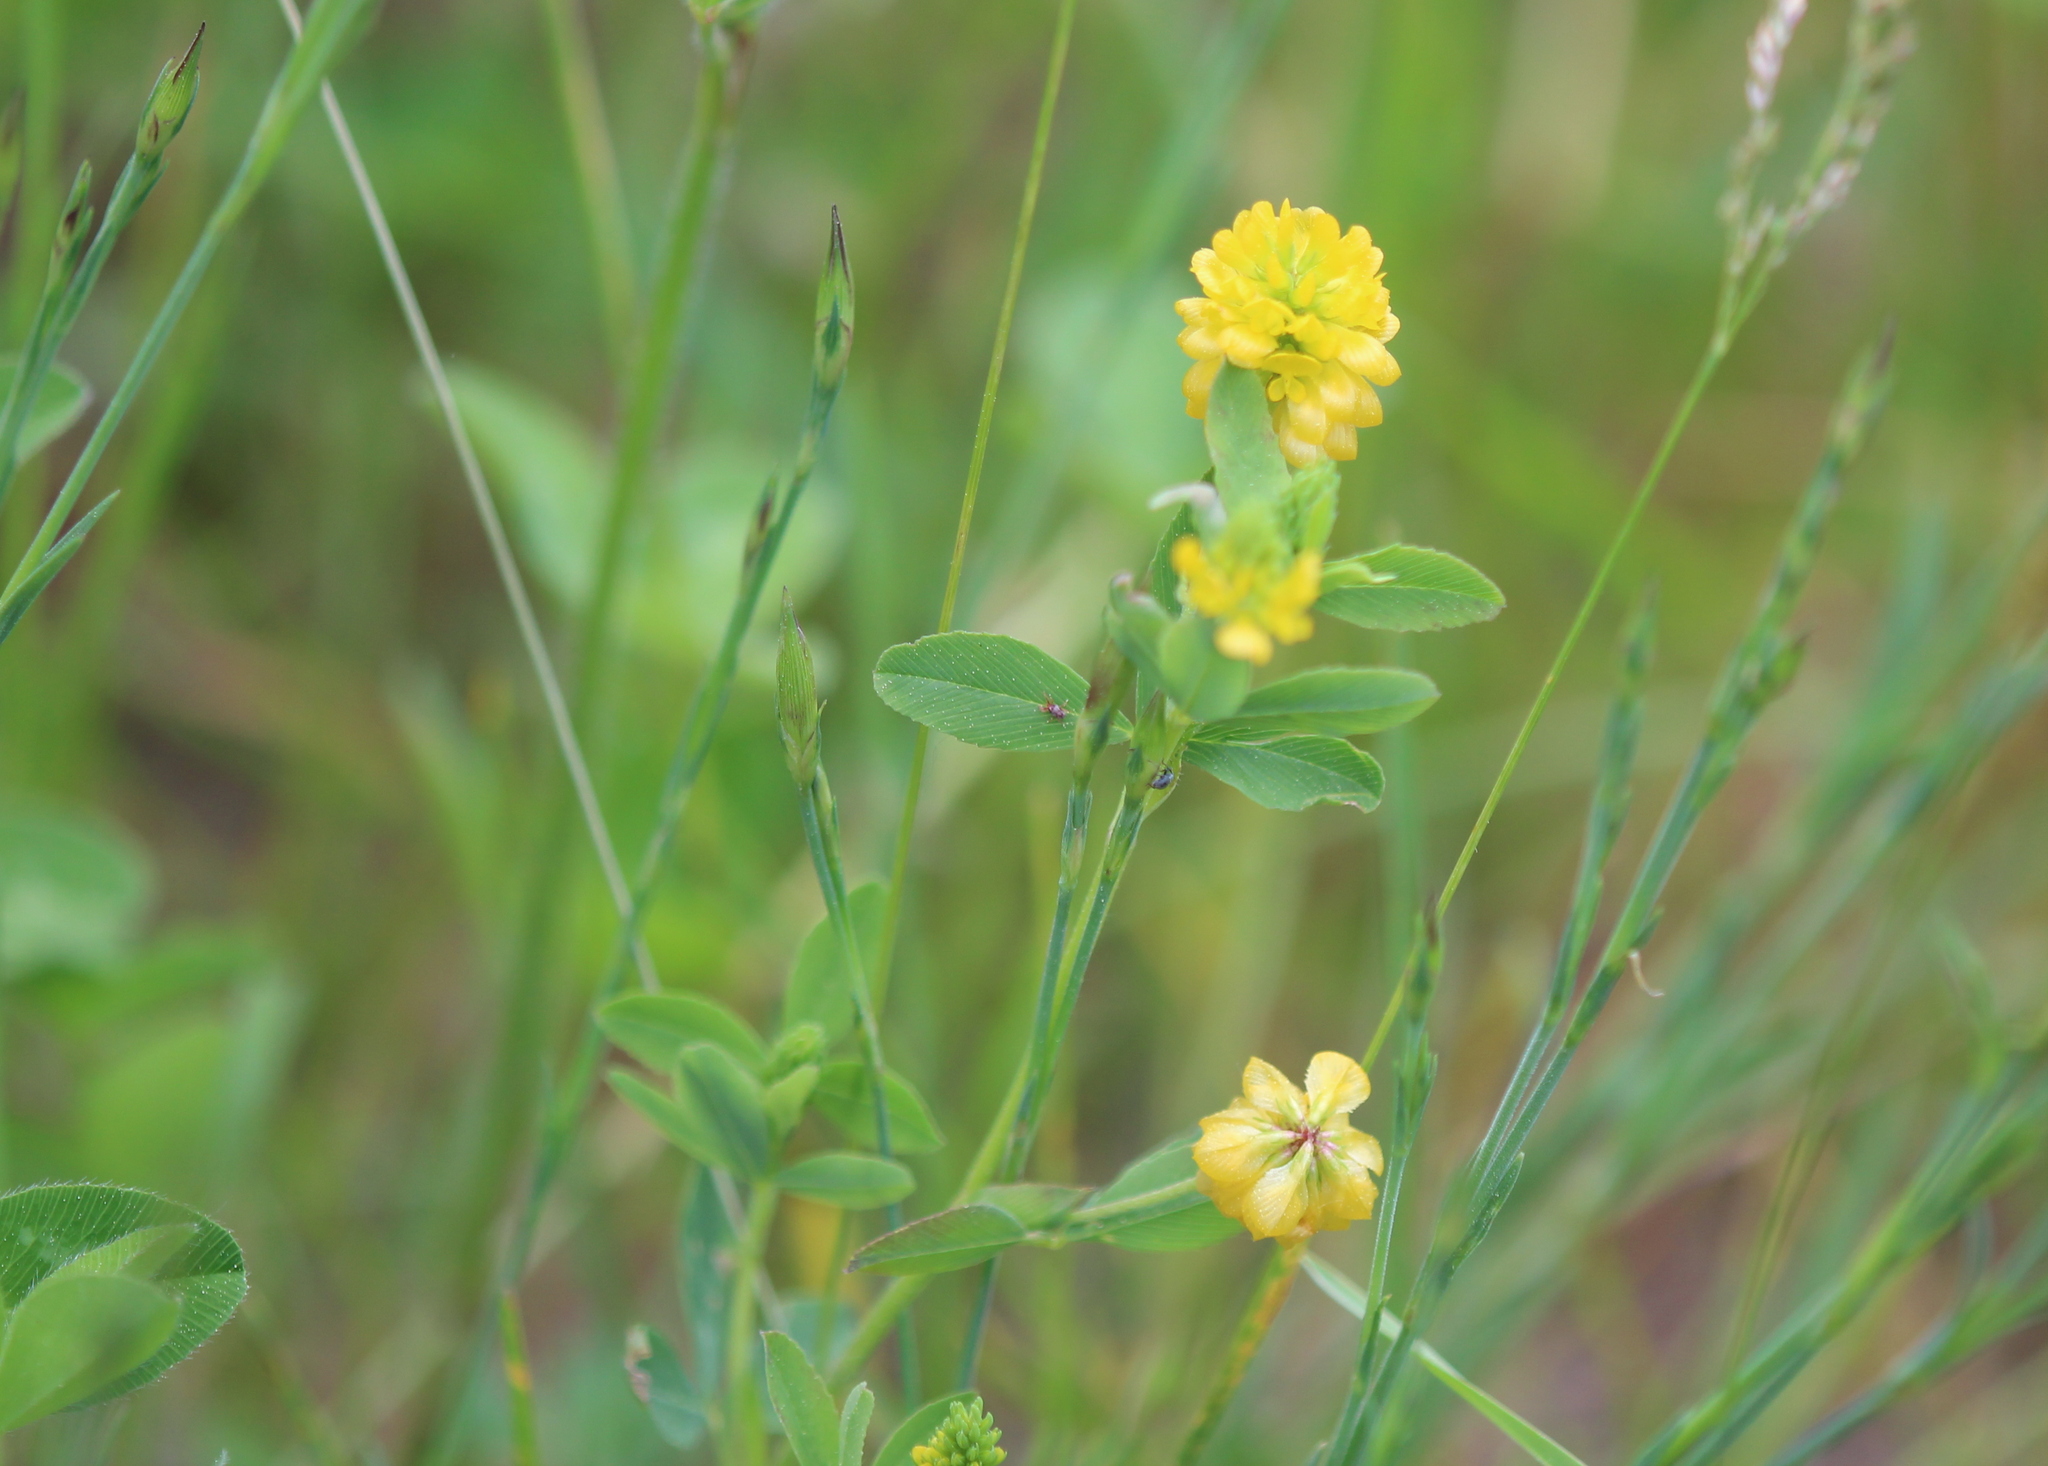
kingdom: Plantae
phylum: Tracheophyta
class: Magnoliopsida
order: Fabales
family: Fabaceae
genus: Trifolium
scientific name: Trifolium aureum
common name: Golden clover
